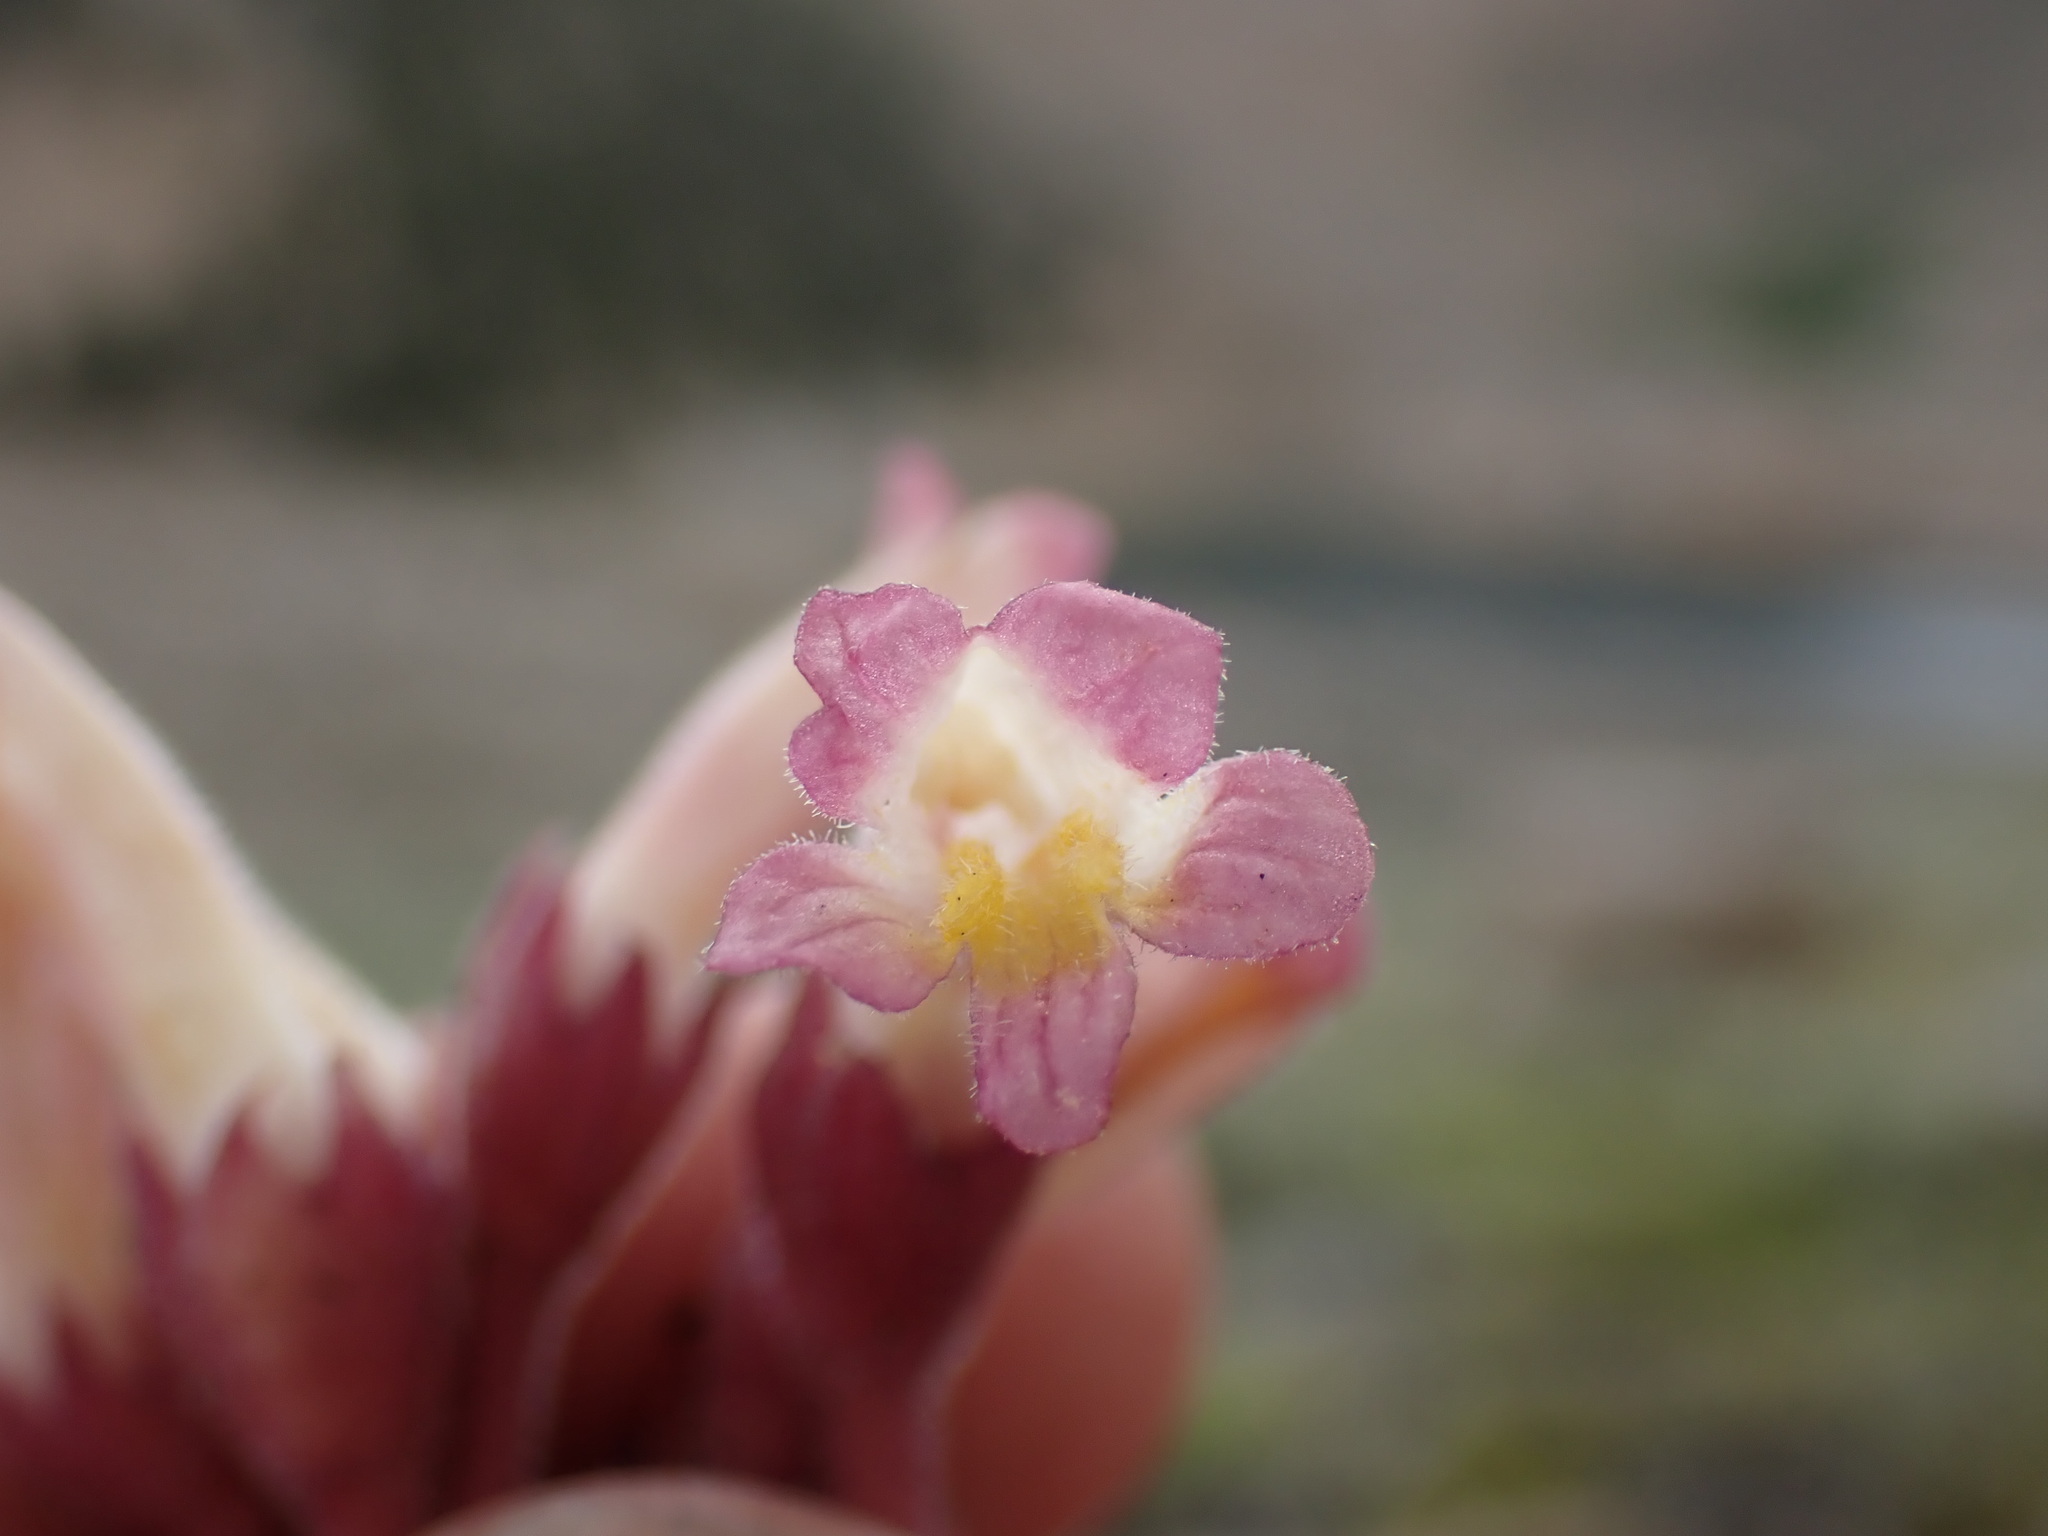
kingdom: Plantae
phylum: Tracheophyta
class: Magnoliopsida
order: Lamiales
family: Orobanchaceae
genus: Aphyllon
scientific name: Aphyllon fasciculatum
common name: Clustered broomrape
